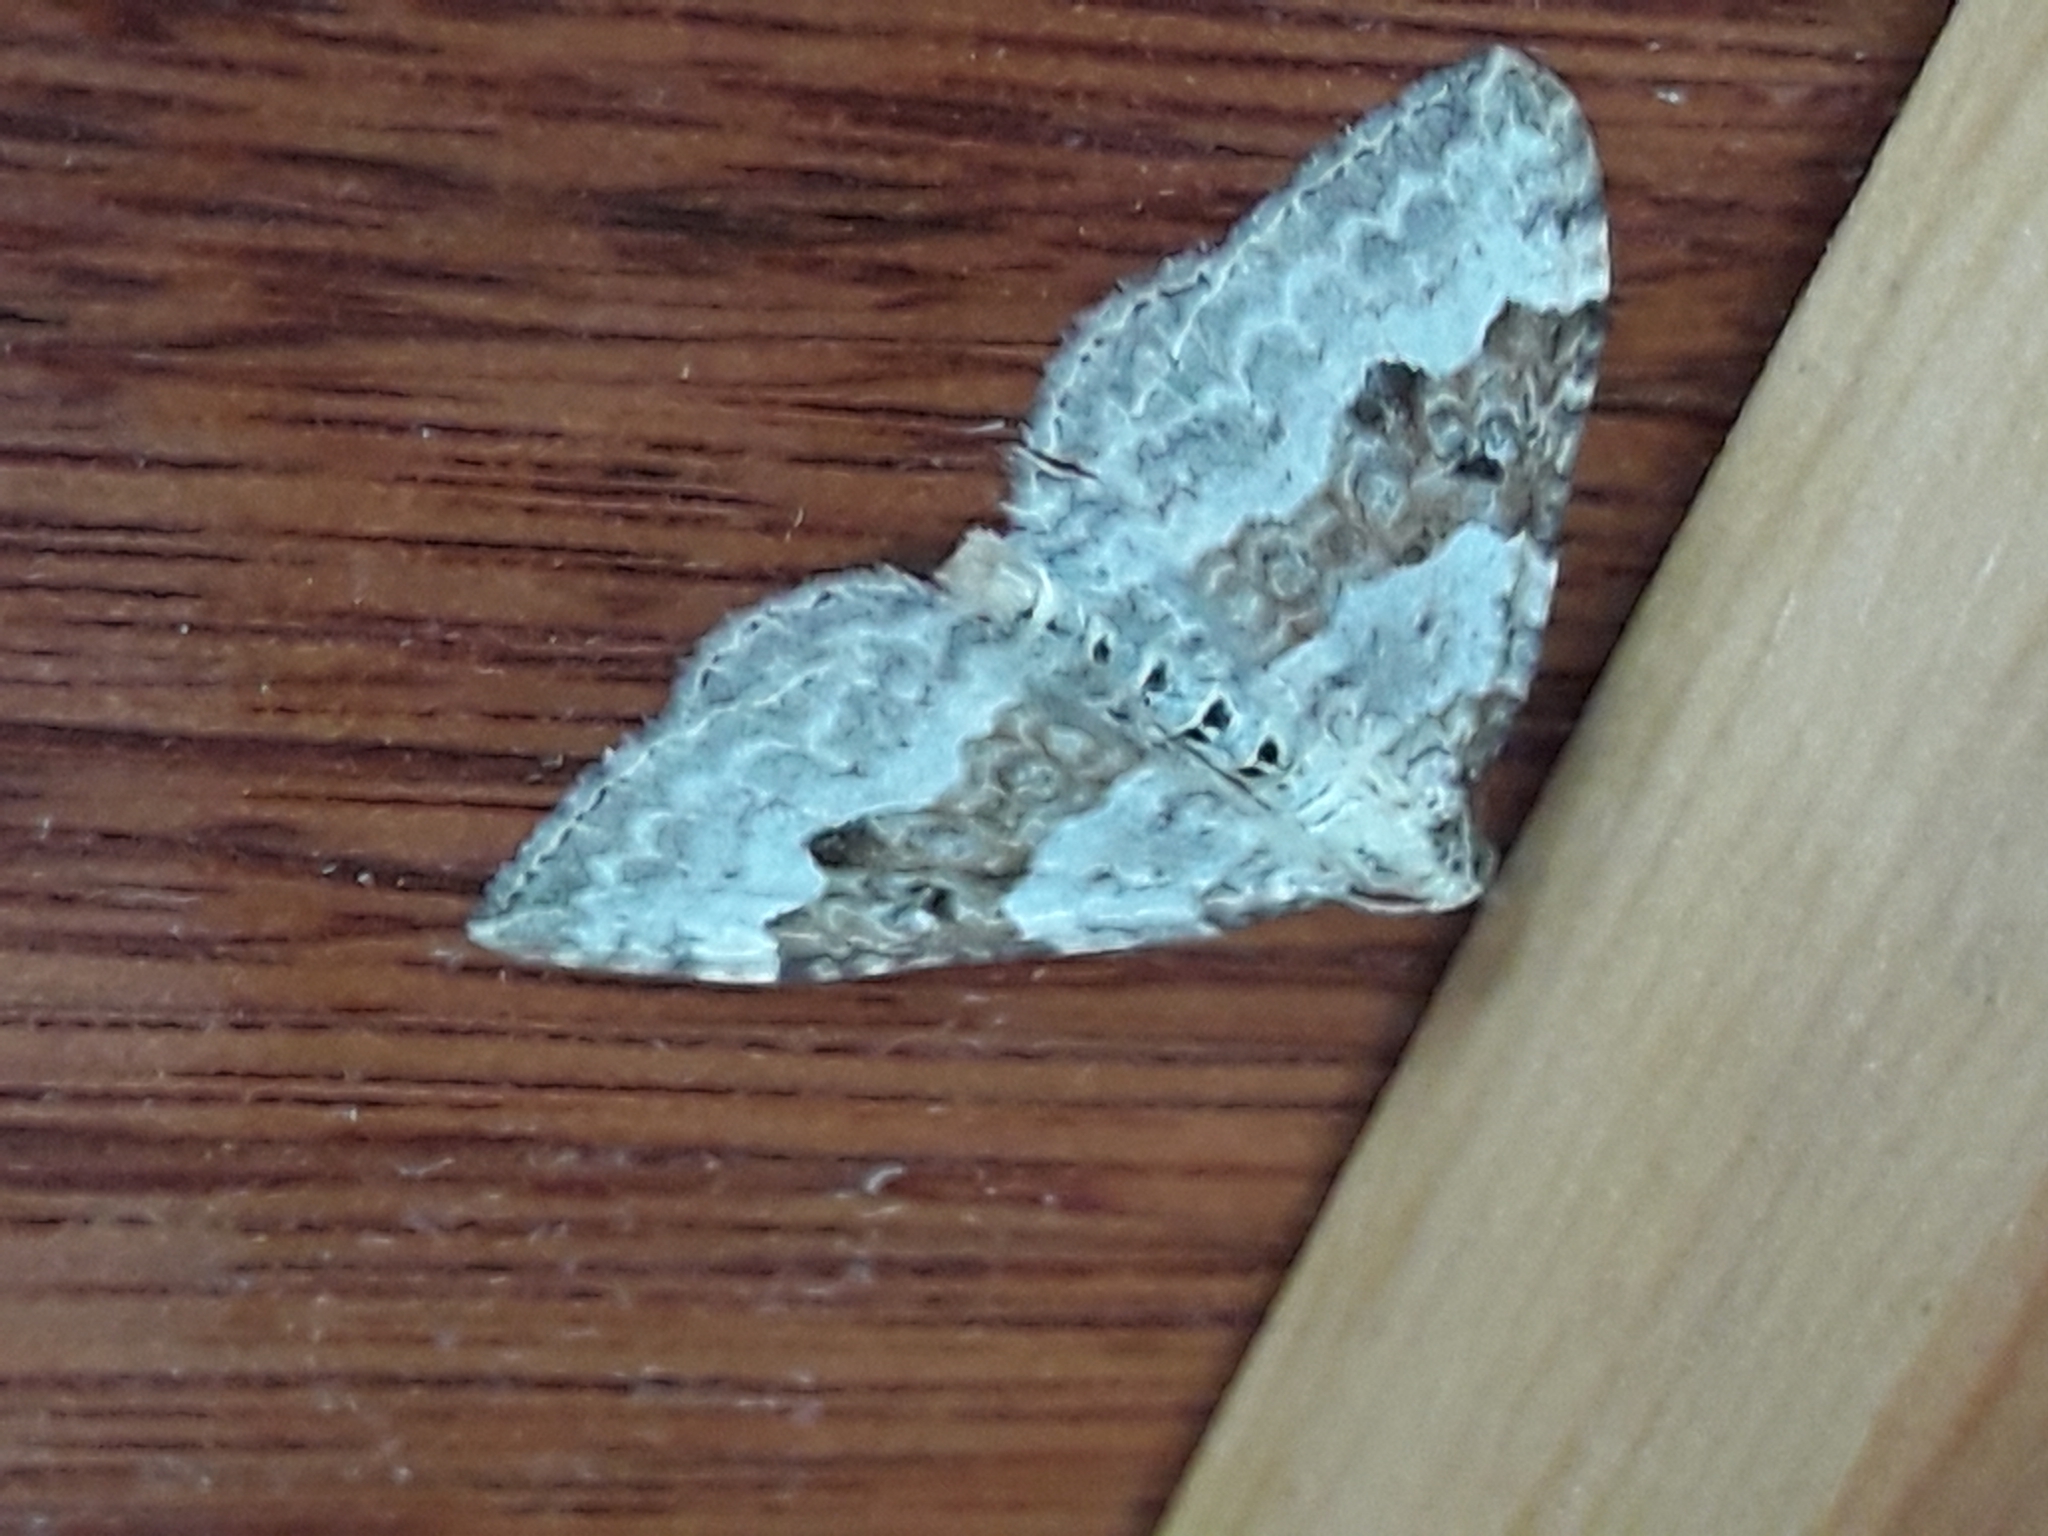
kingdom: Animalia
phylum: Arthropoda
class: Insecta
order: Lepidoptera
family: Geometridae
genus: Xanthorhoe
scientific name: Xanthorhoe montanata
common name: Silver-ground carpet
